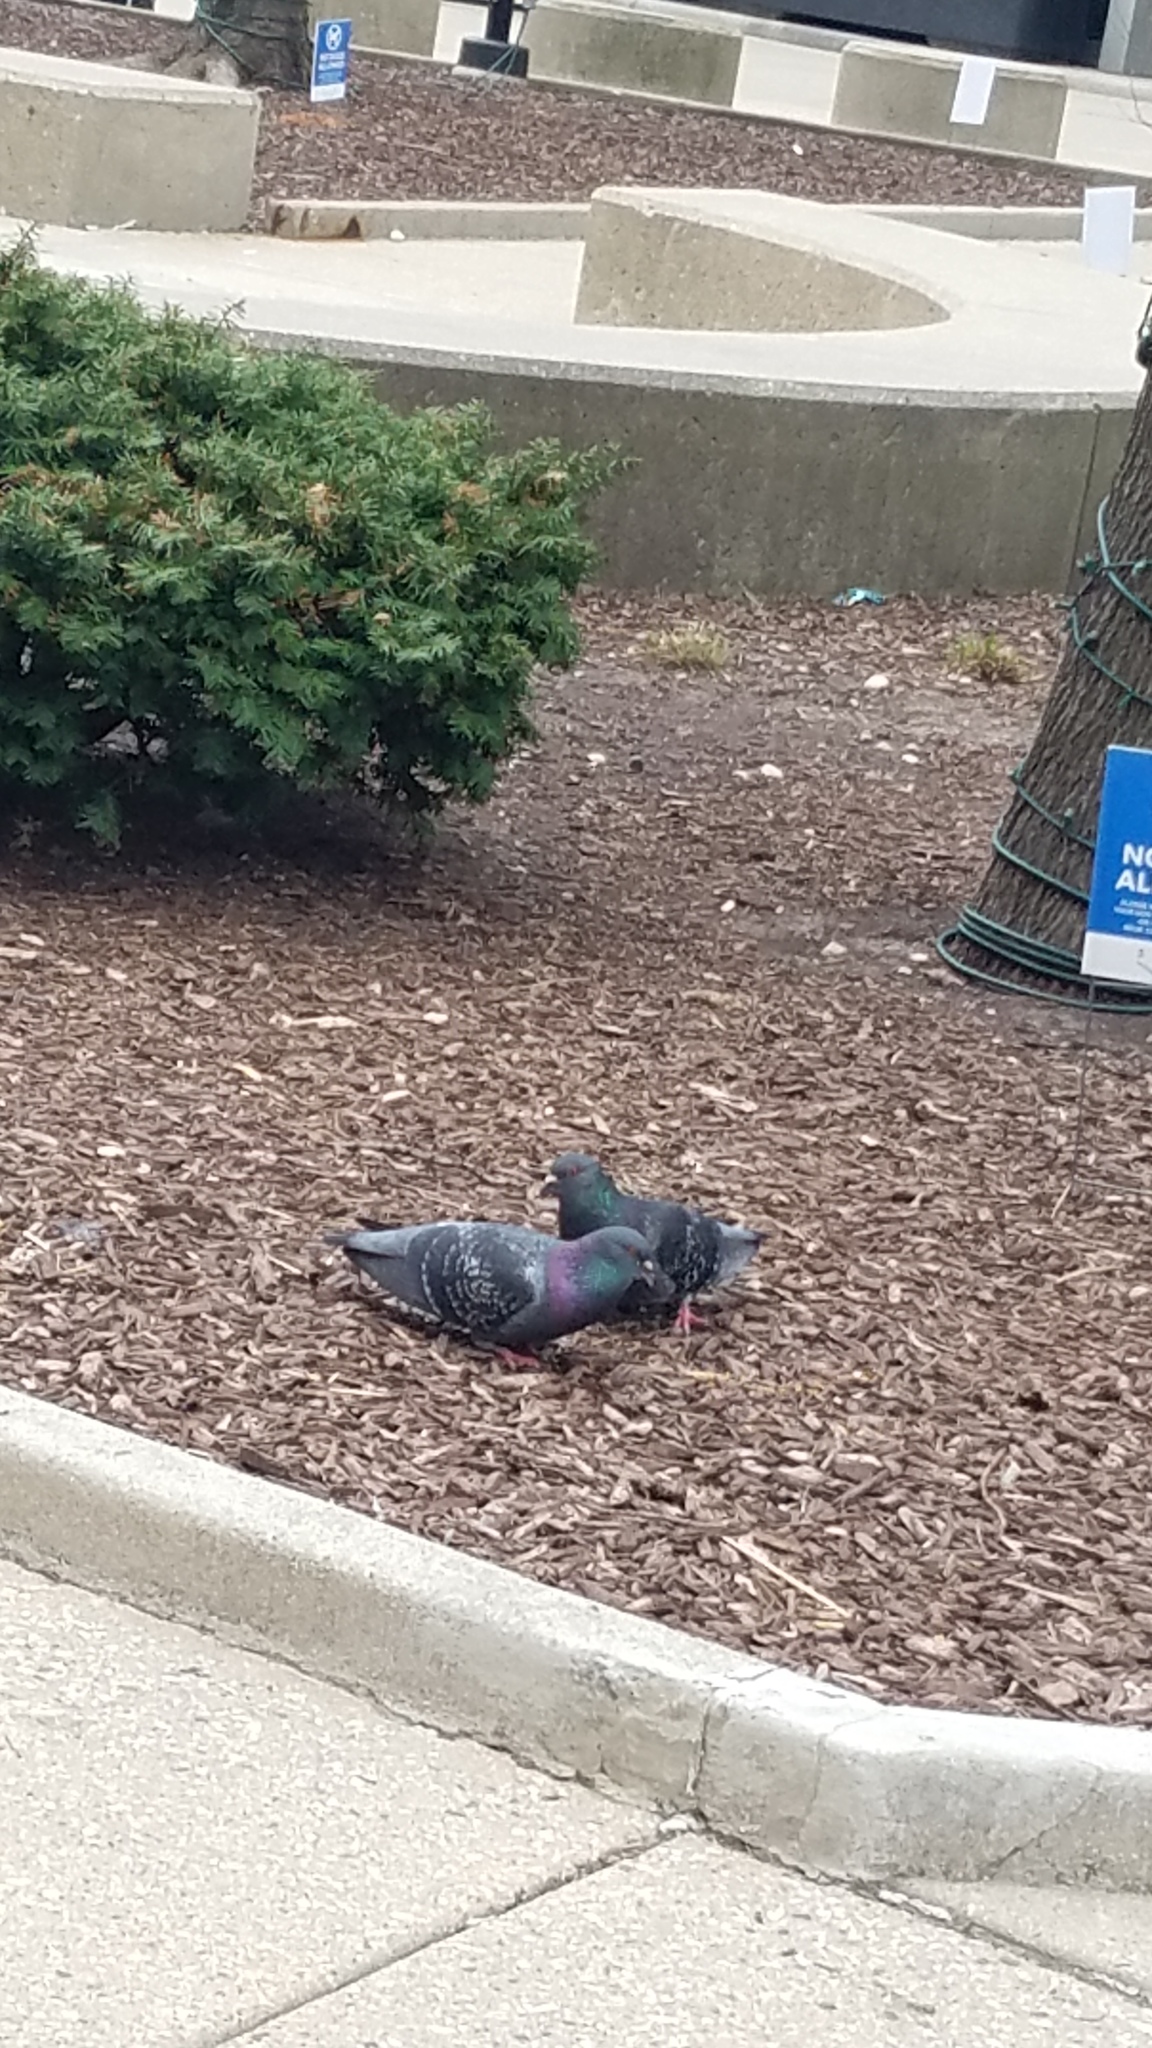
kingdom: Animalia
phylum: Chordata
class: Aves
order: Columbiformes
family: Columbidae
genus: Columba
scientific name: Columba livia
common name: Rock pigeon
